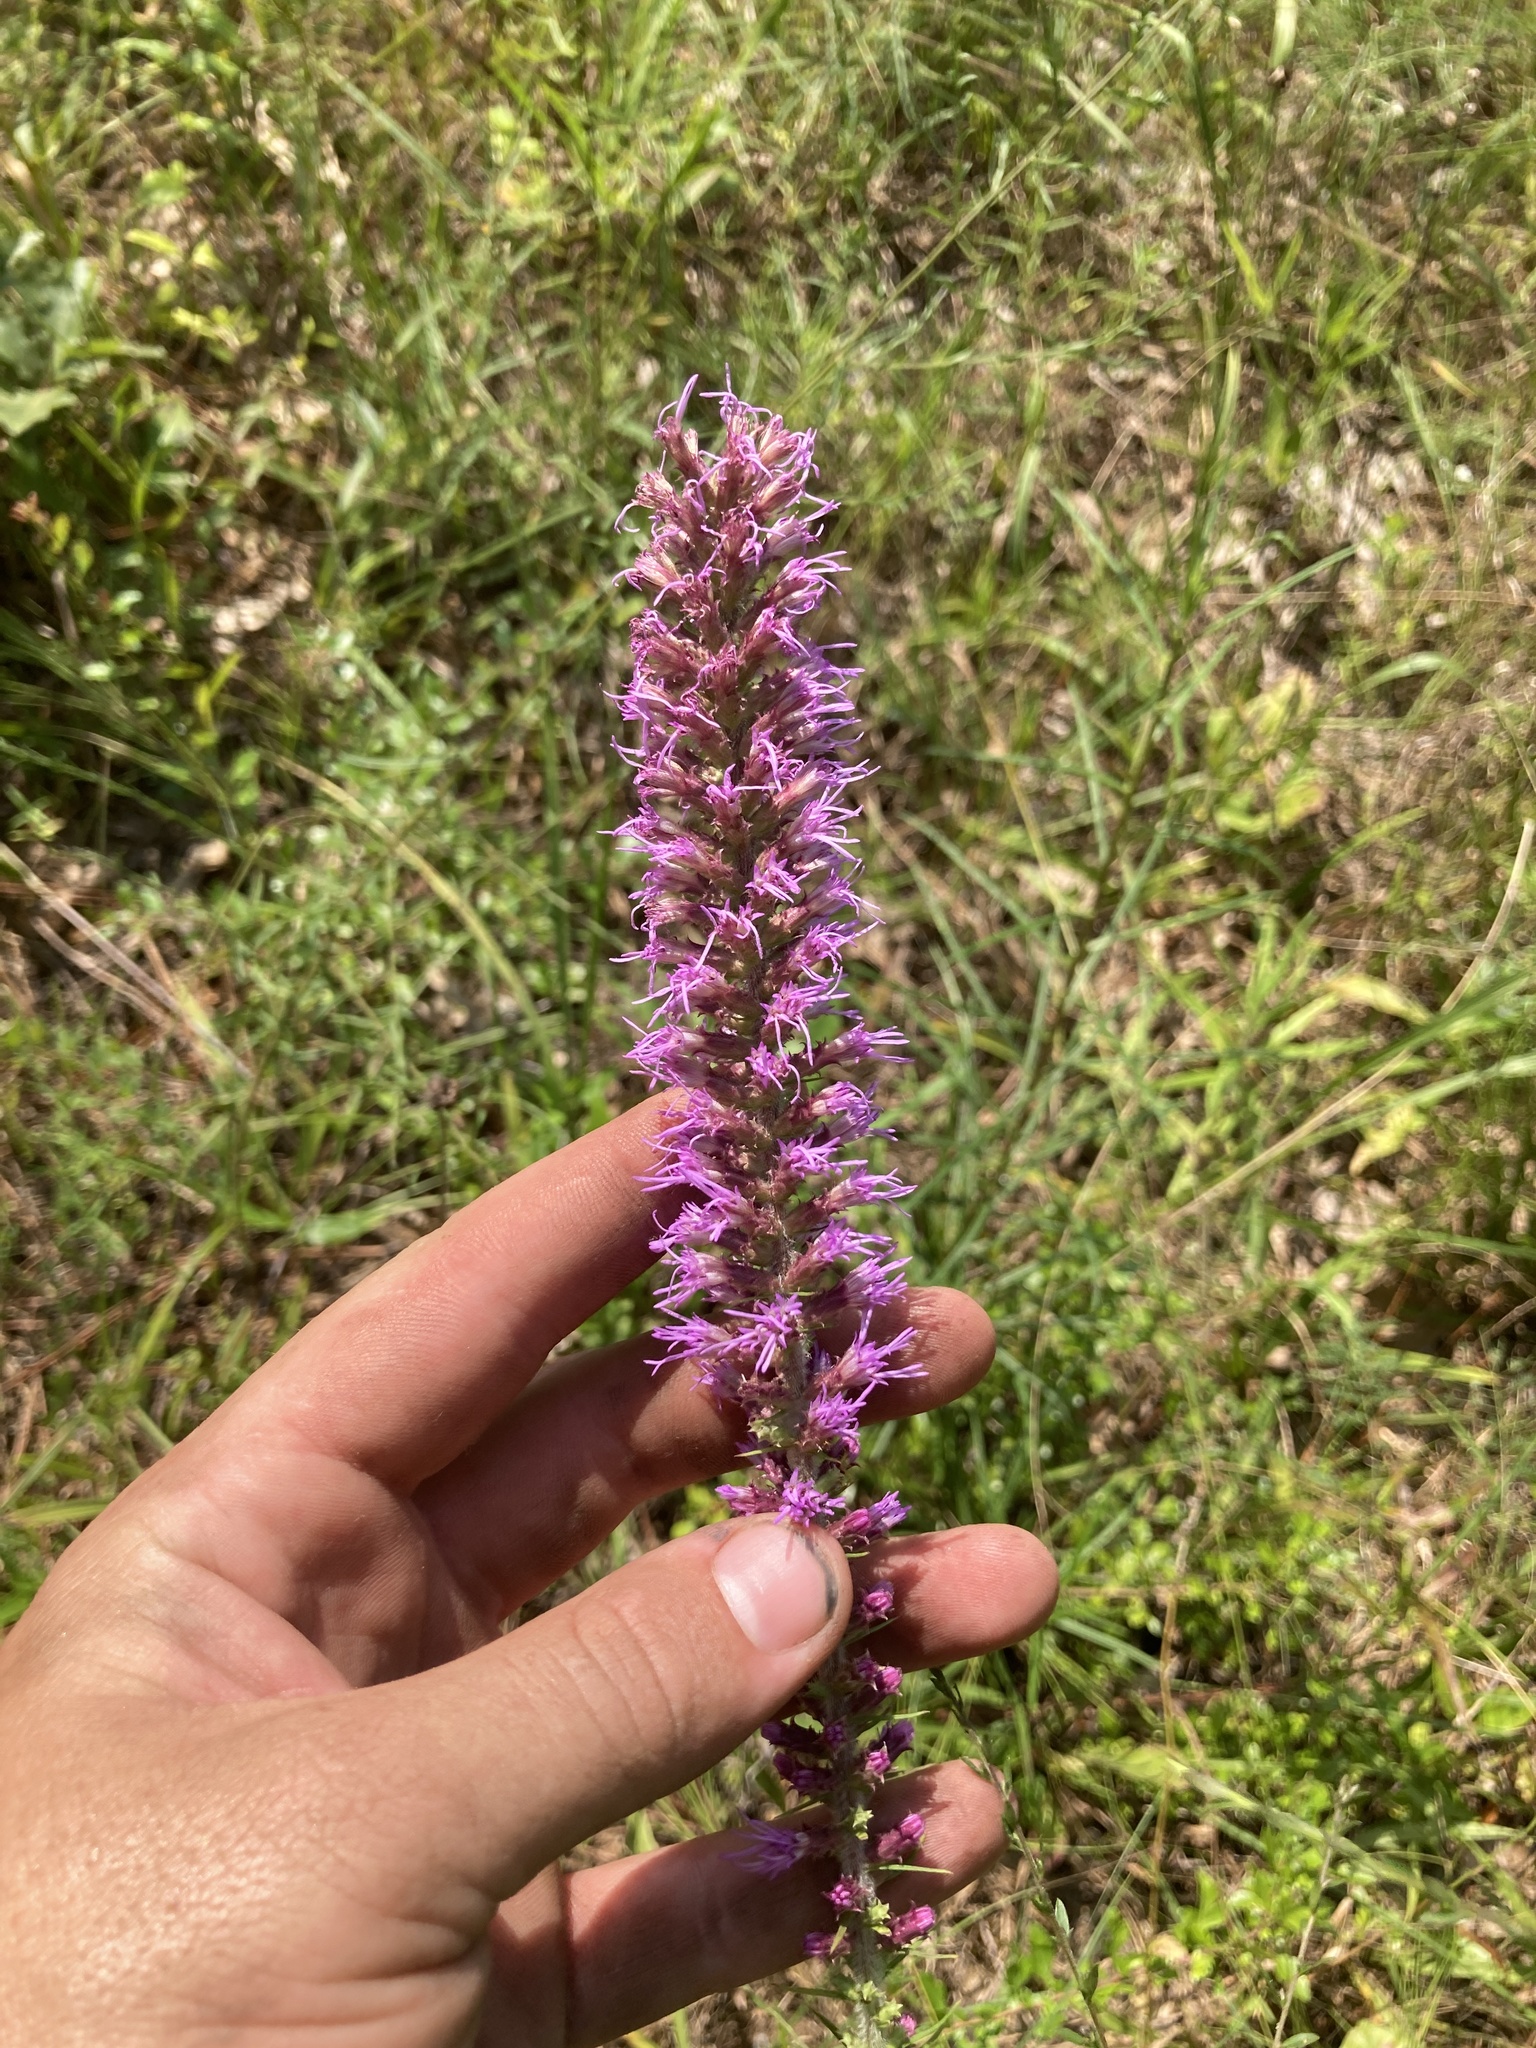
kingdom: Plantae
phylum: Tracheophyta
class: Magnoliopsida
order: Asterales
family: Asteraceae
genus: Liatris
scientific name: Liatris pycnostachya
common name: Cattail gayfeather
